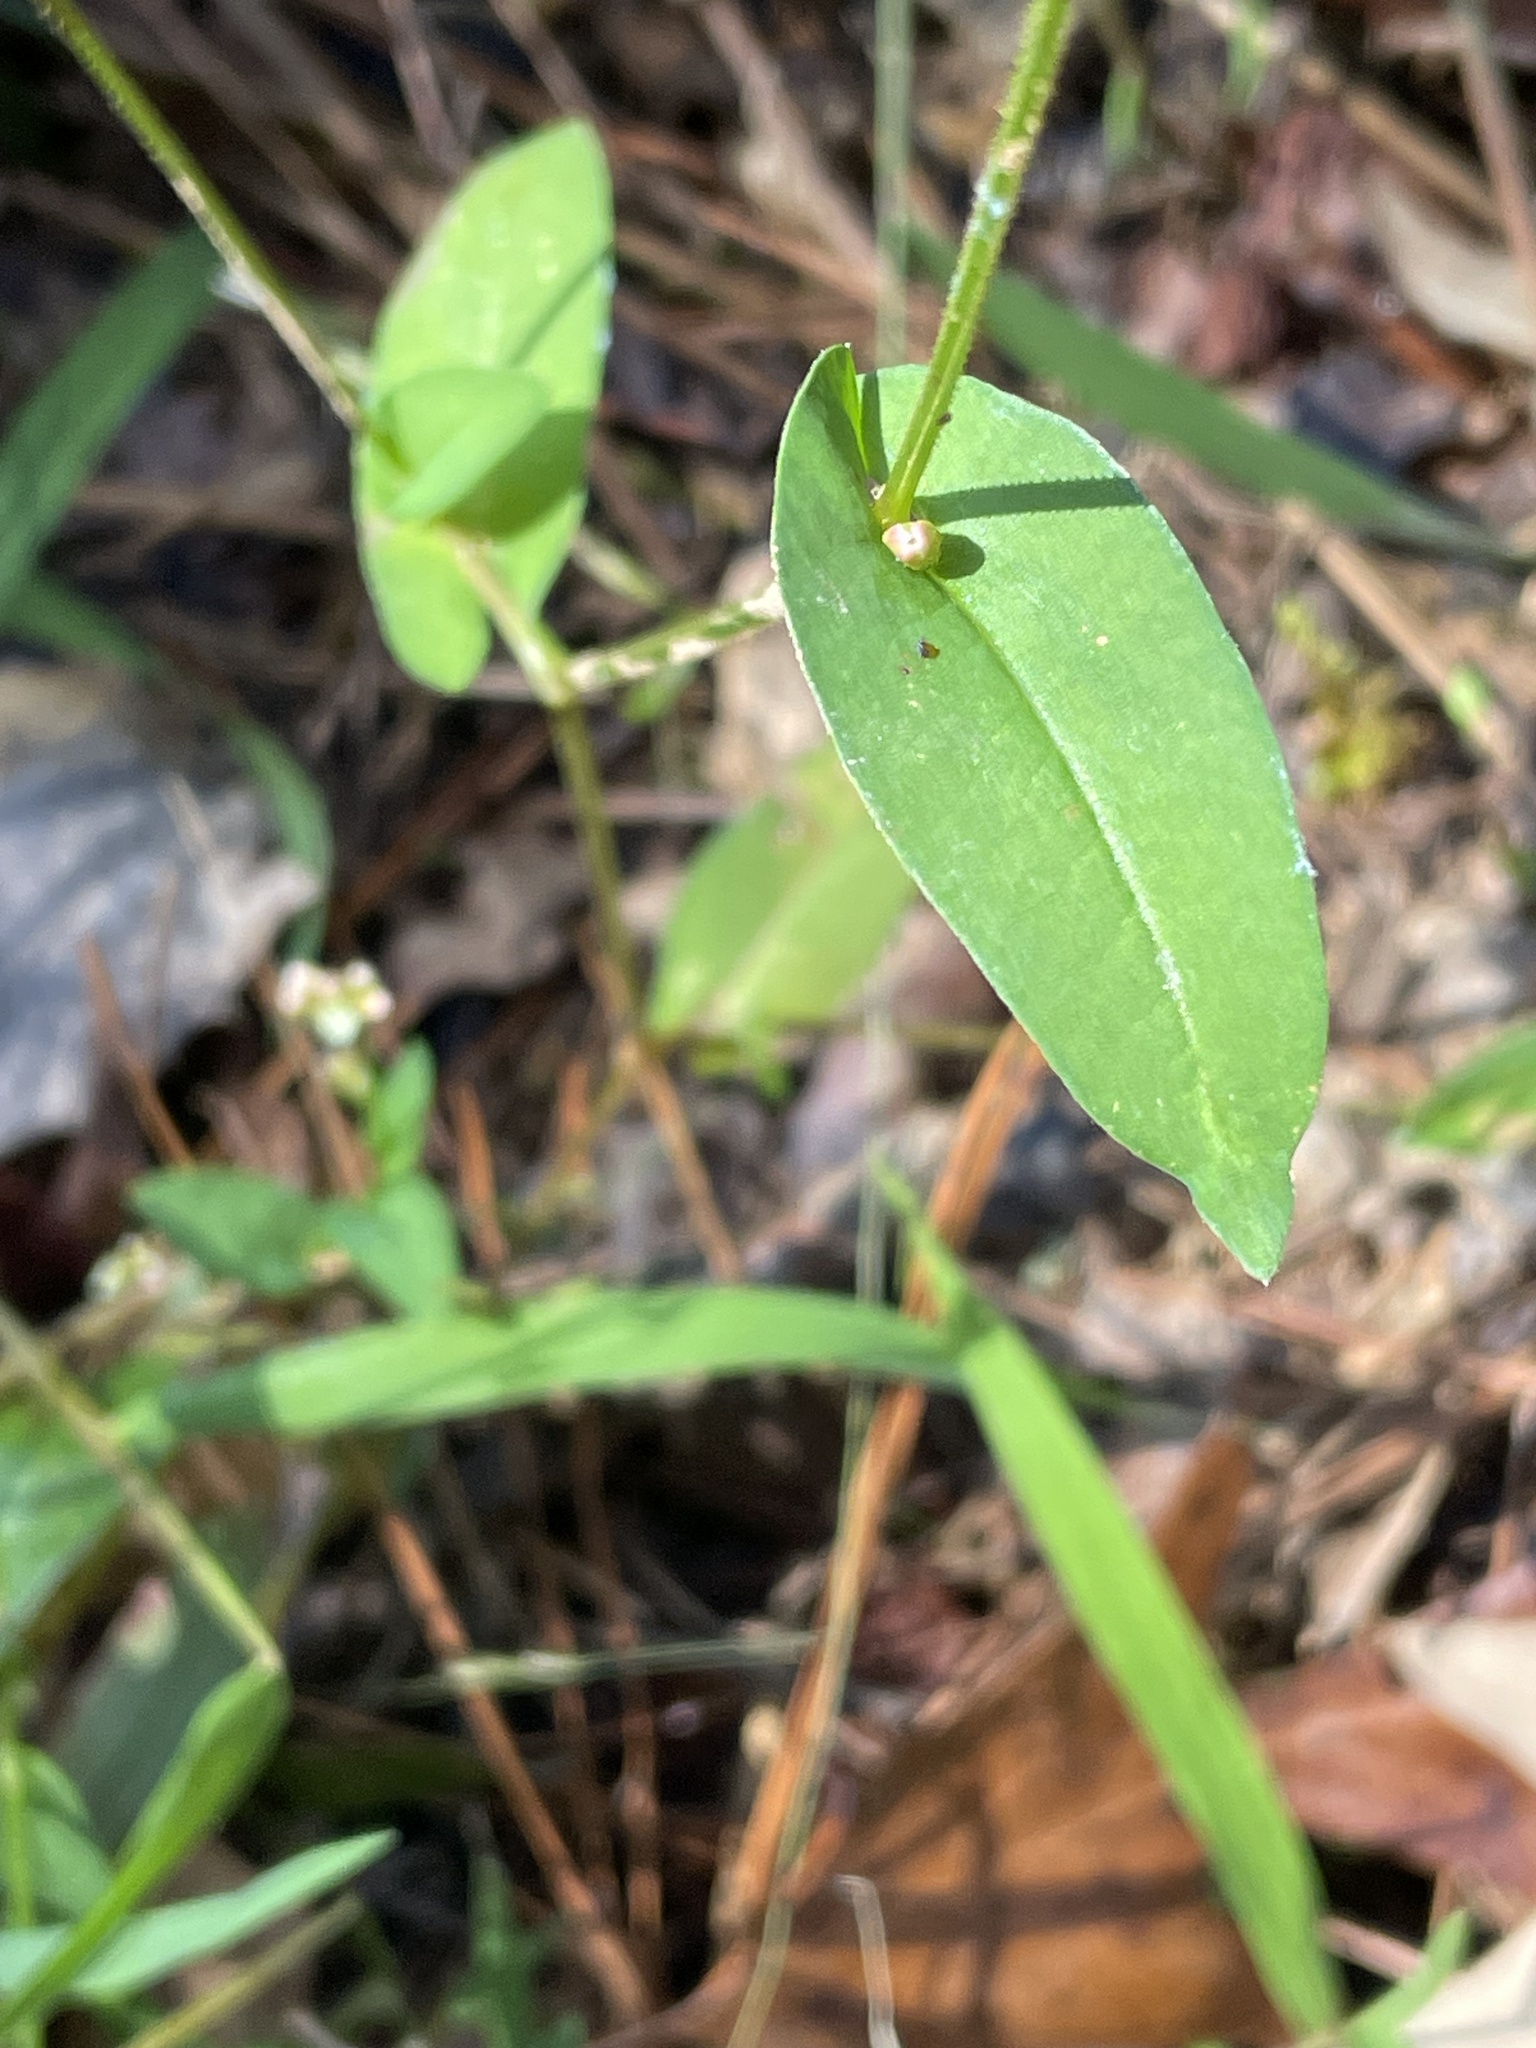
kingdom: Plantae
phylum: Tracheophyta
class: Magnoliopsida
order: Caryophyllales
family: Polygonaceae
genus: Persicaria
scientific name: Persicaria sagittata
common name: American tearthumb
